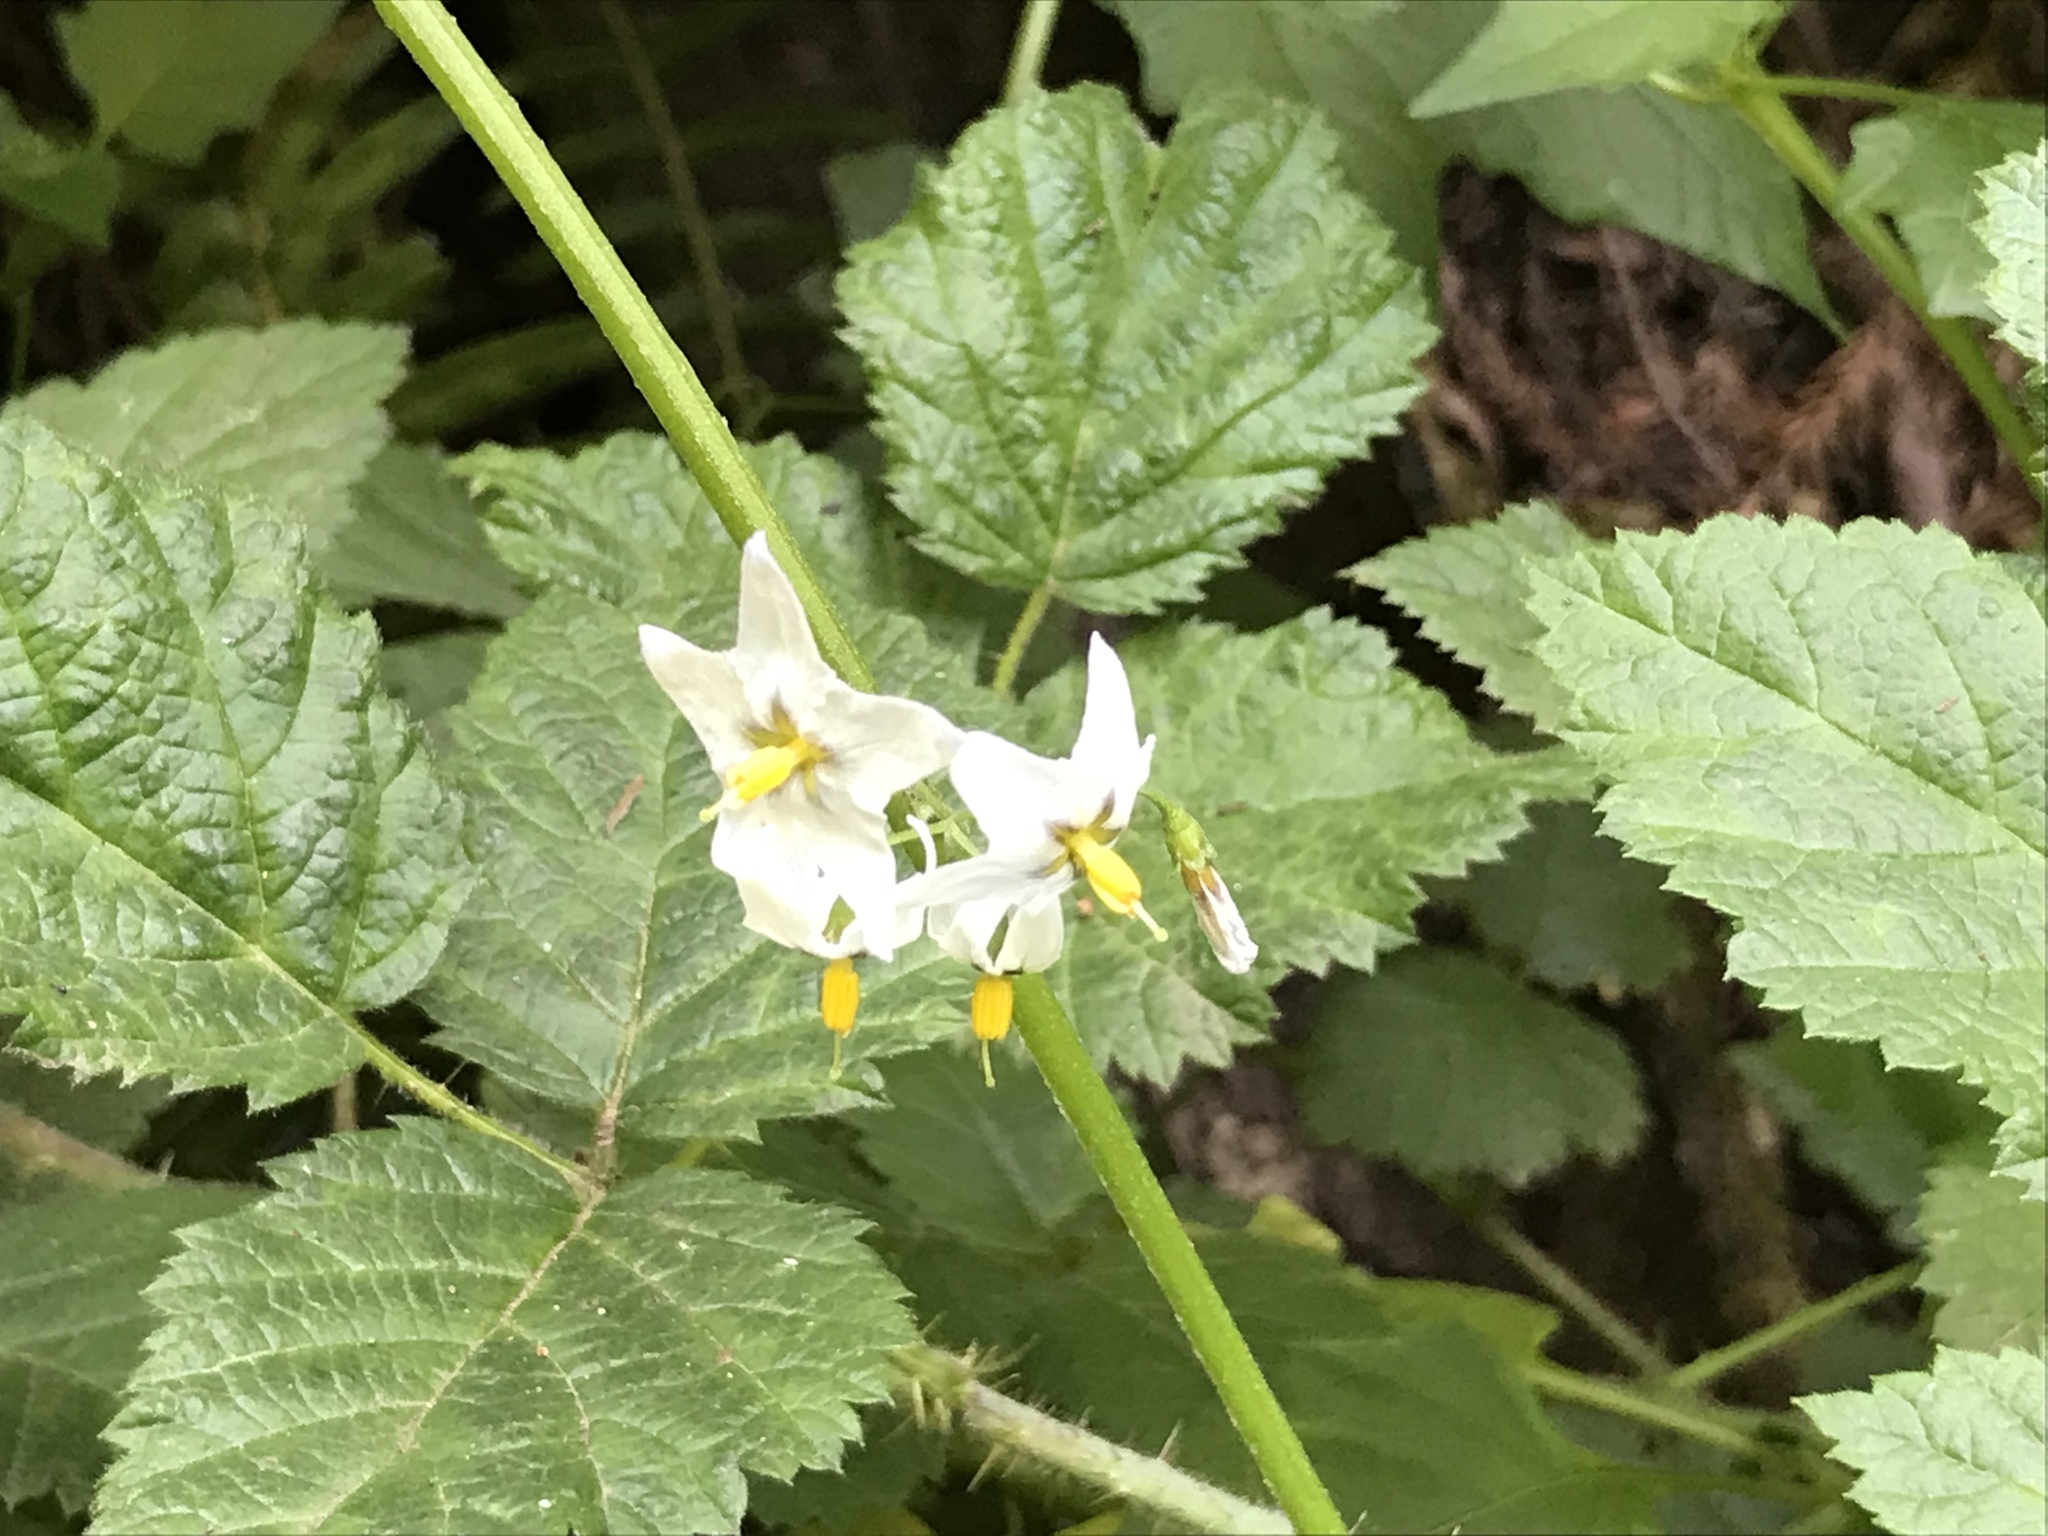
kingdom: Plantae
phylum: Tracheophyta
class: Magnoliopsida
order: Solanales
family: Solanaceae
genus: Solanum
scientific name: Solanum furcatum
